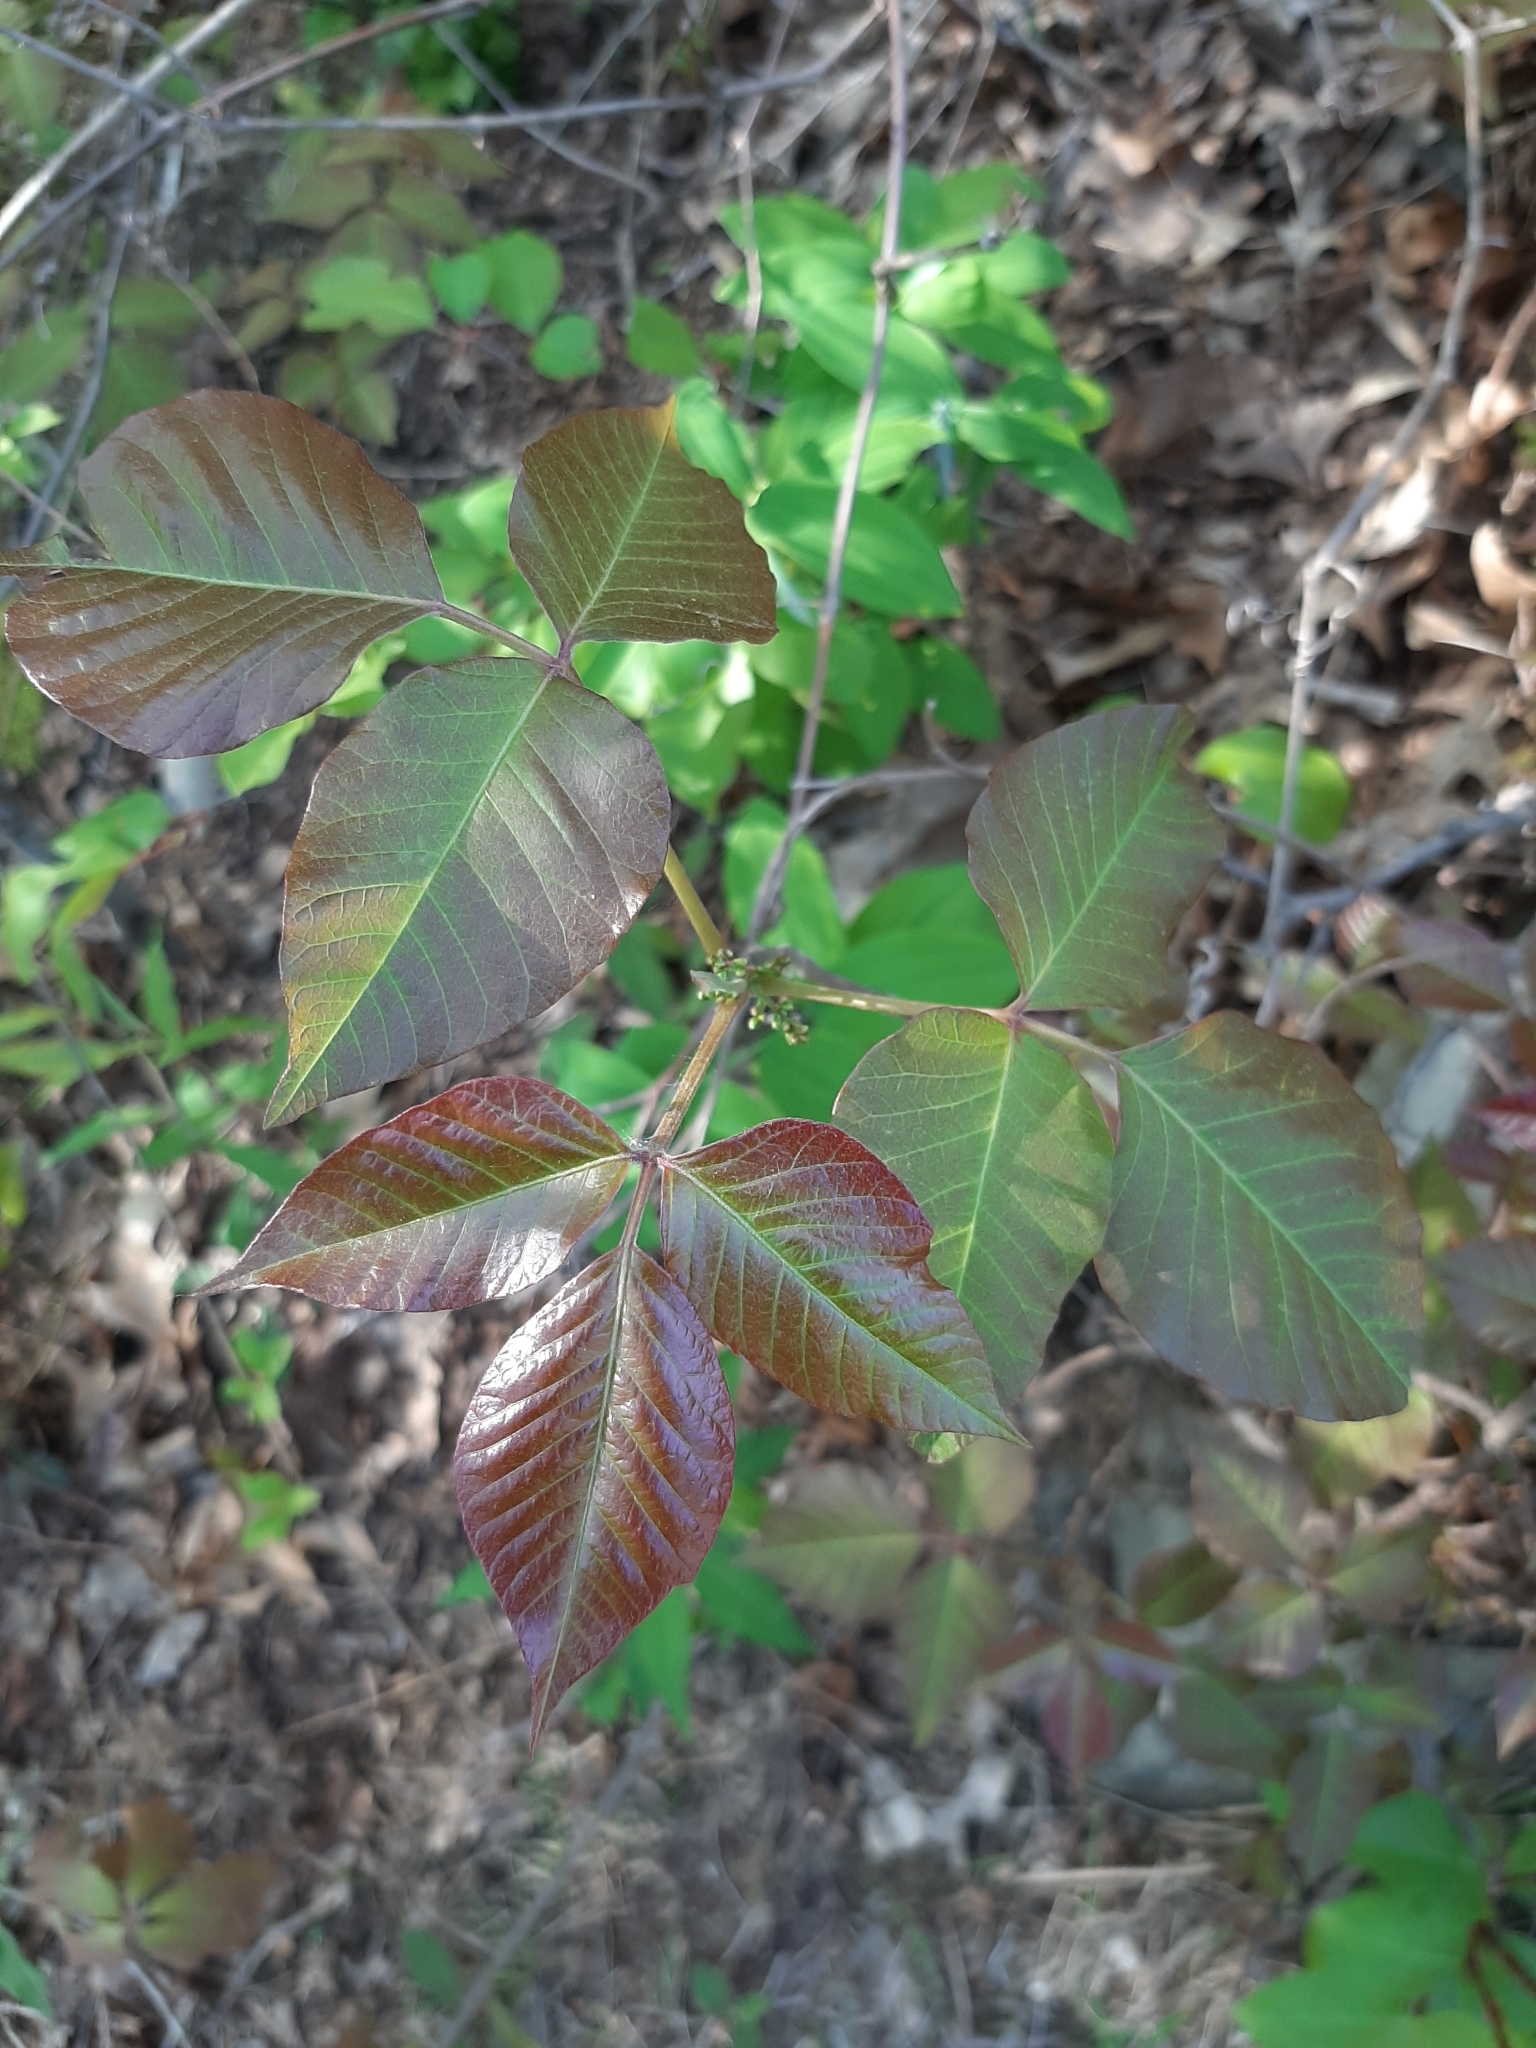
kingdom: Plantae
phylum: Tracheophyta
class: Magnoliopsida
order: Sapindales
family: Anacardiaceae
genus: Toxicodendron
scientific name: Toxicodendron rydbergii
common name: Rydberg's poison-ivy
